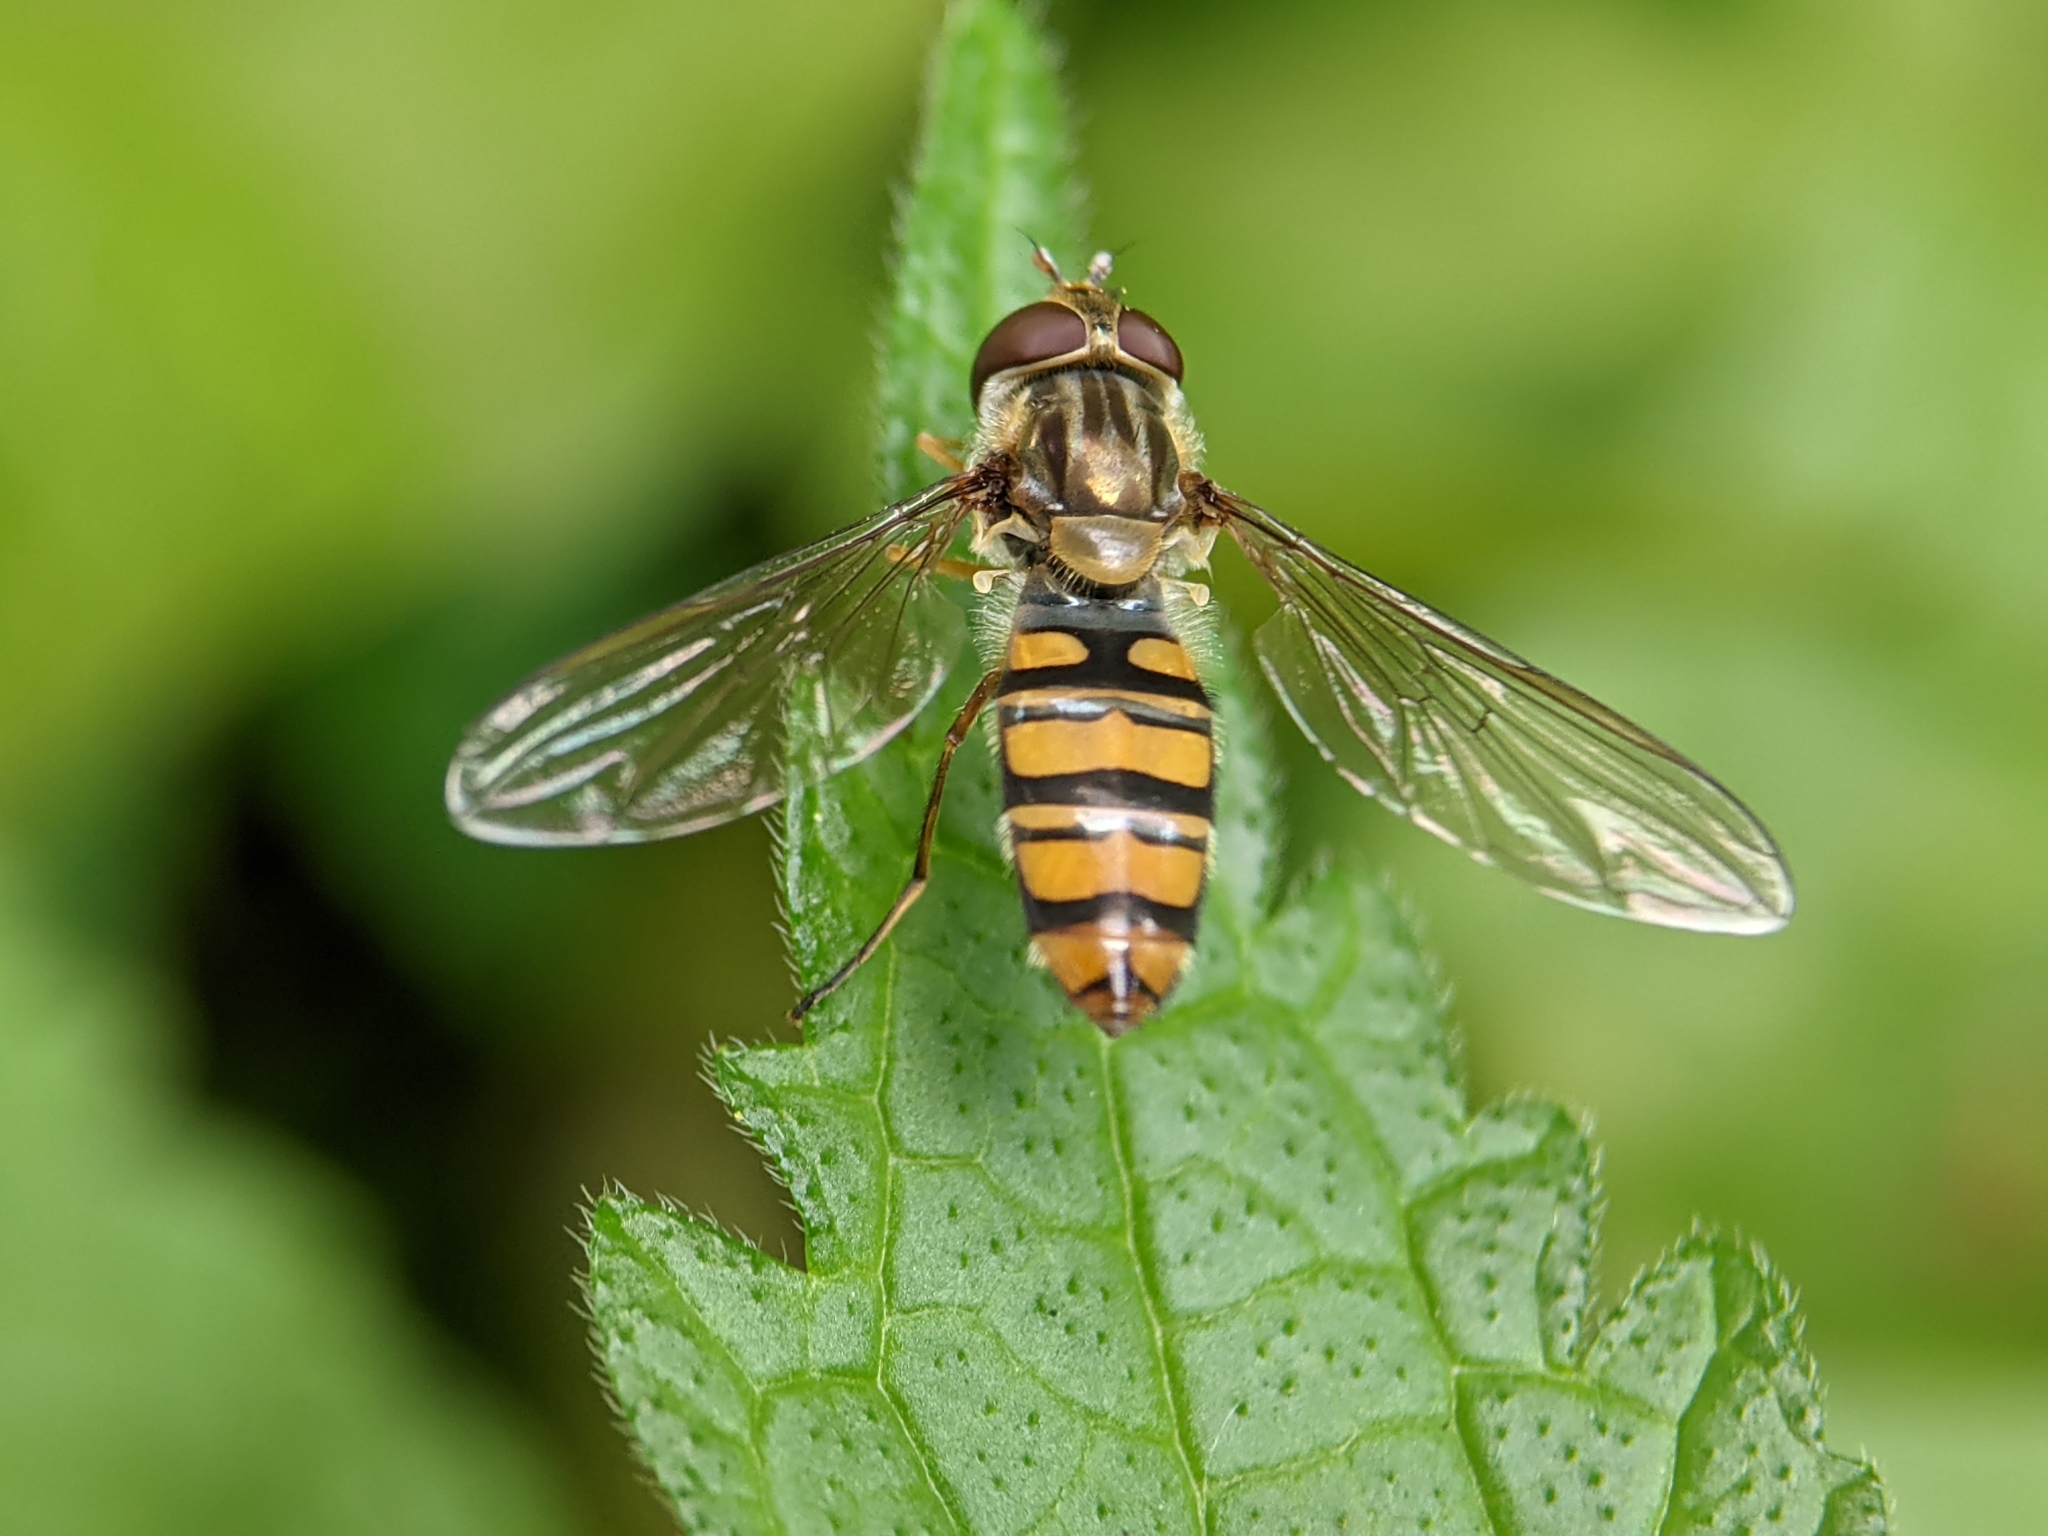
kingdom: Animalia
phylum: Arthropoda
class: Insecta
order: Diptera
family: Syrphidae
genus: Episyrphus
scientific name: Episyrphus balteatus
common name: Marmalade hoverfly
